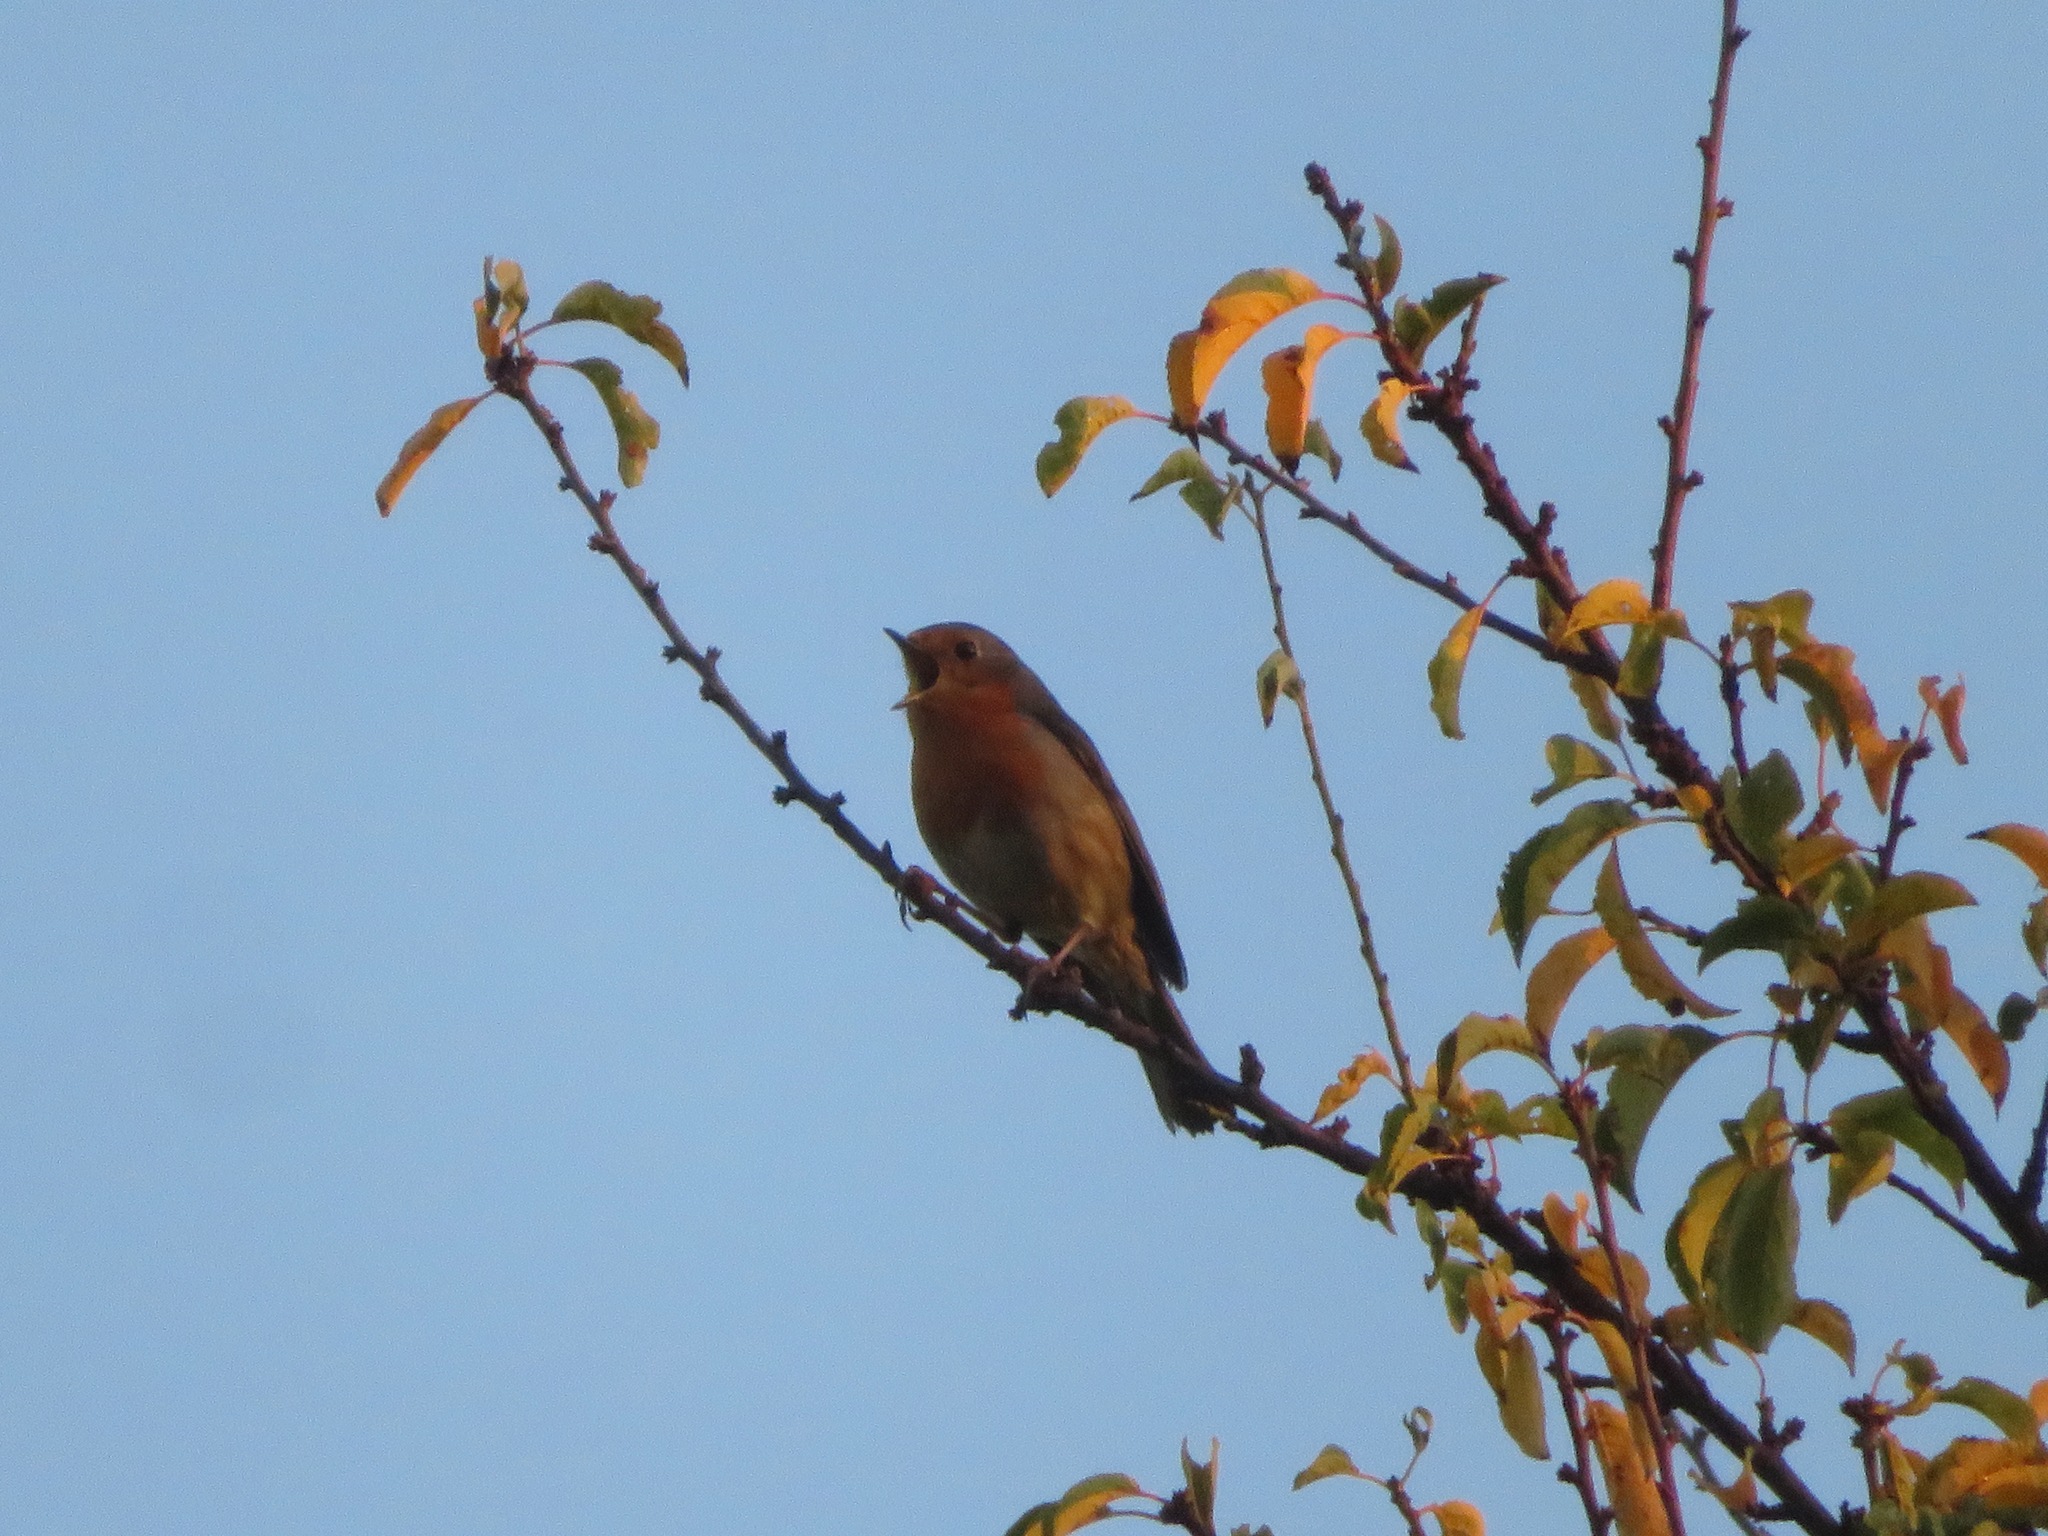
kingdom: Animalia
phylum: Chordata
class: Aves
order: Passeriformes
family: Muscicapidae
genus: Erithacus
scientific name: Erithacus rubecula
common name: European robin
